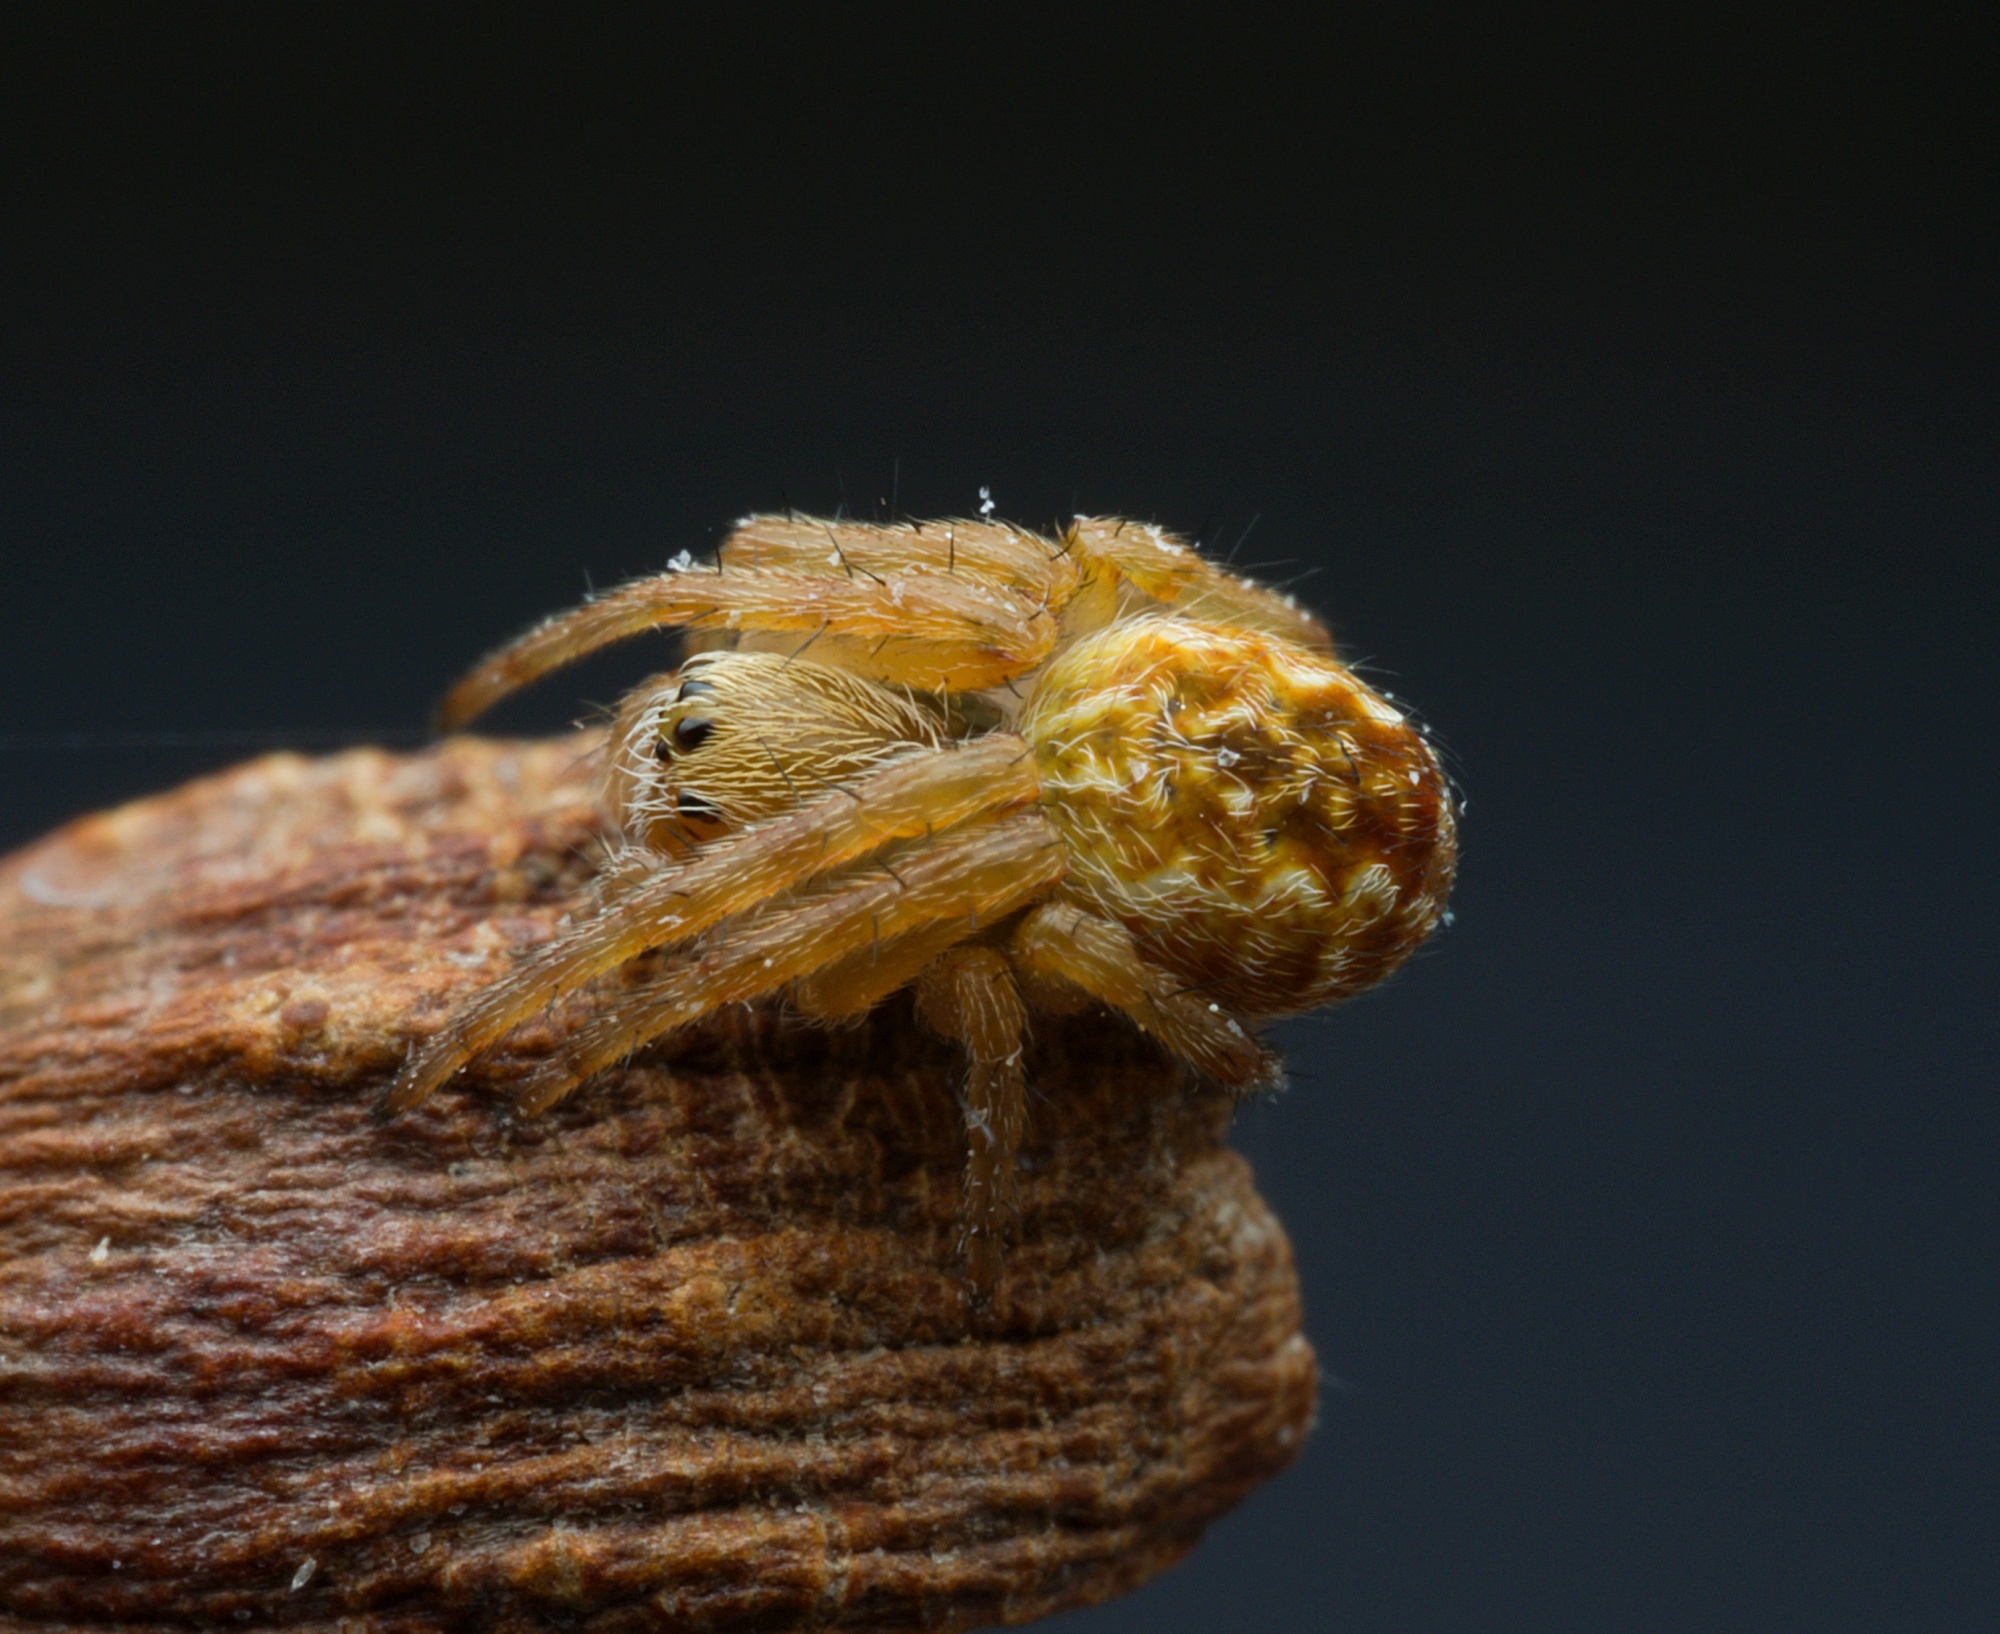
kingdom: Animalia
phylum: Arthropoda
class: Arachnida
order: Araneae
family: Araneidae
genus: Salsa
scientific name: Salsa fuliginata
